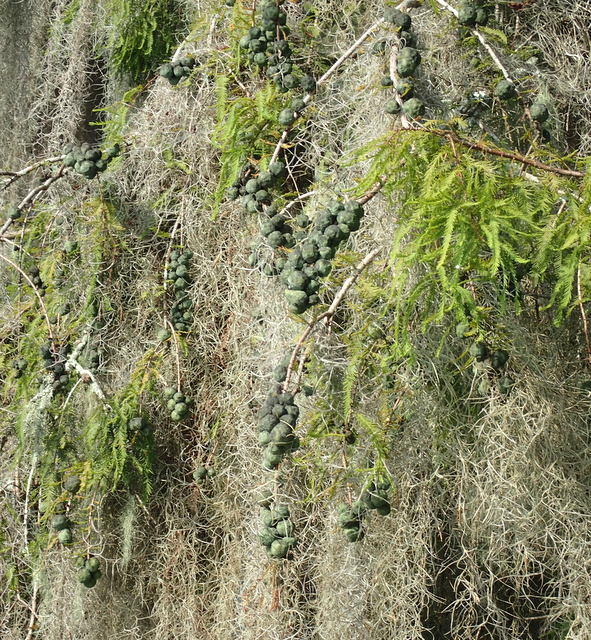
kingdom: Plantae
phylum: Tracheophyta
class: Pinopsida
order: Pinales
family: Cupressaceae
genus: Taxodium
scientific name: Taxodium distichum
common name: Bald cypress
